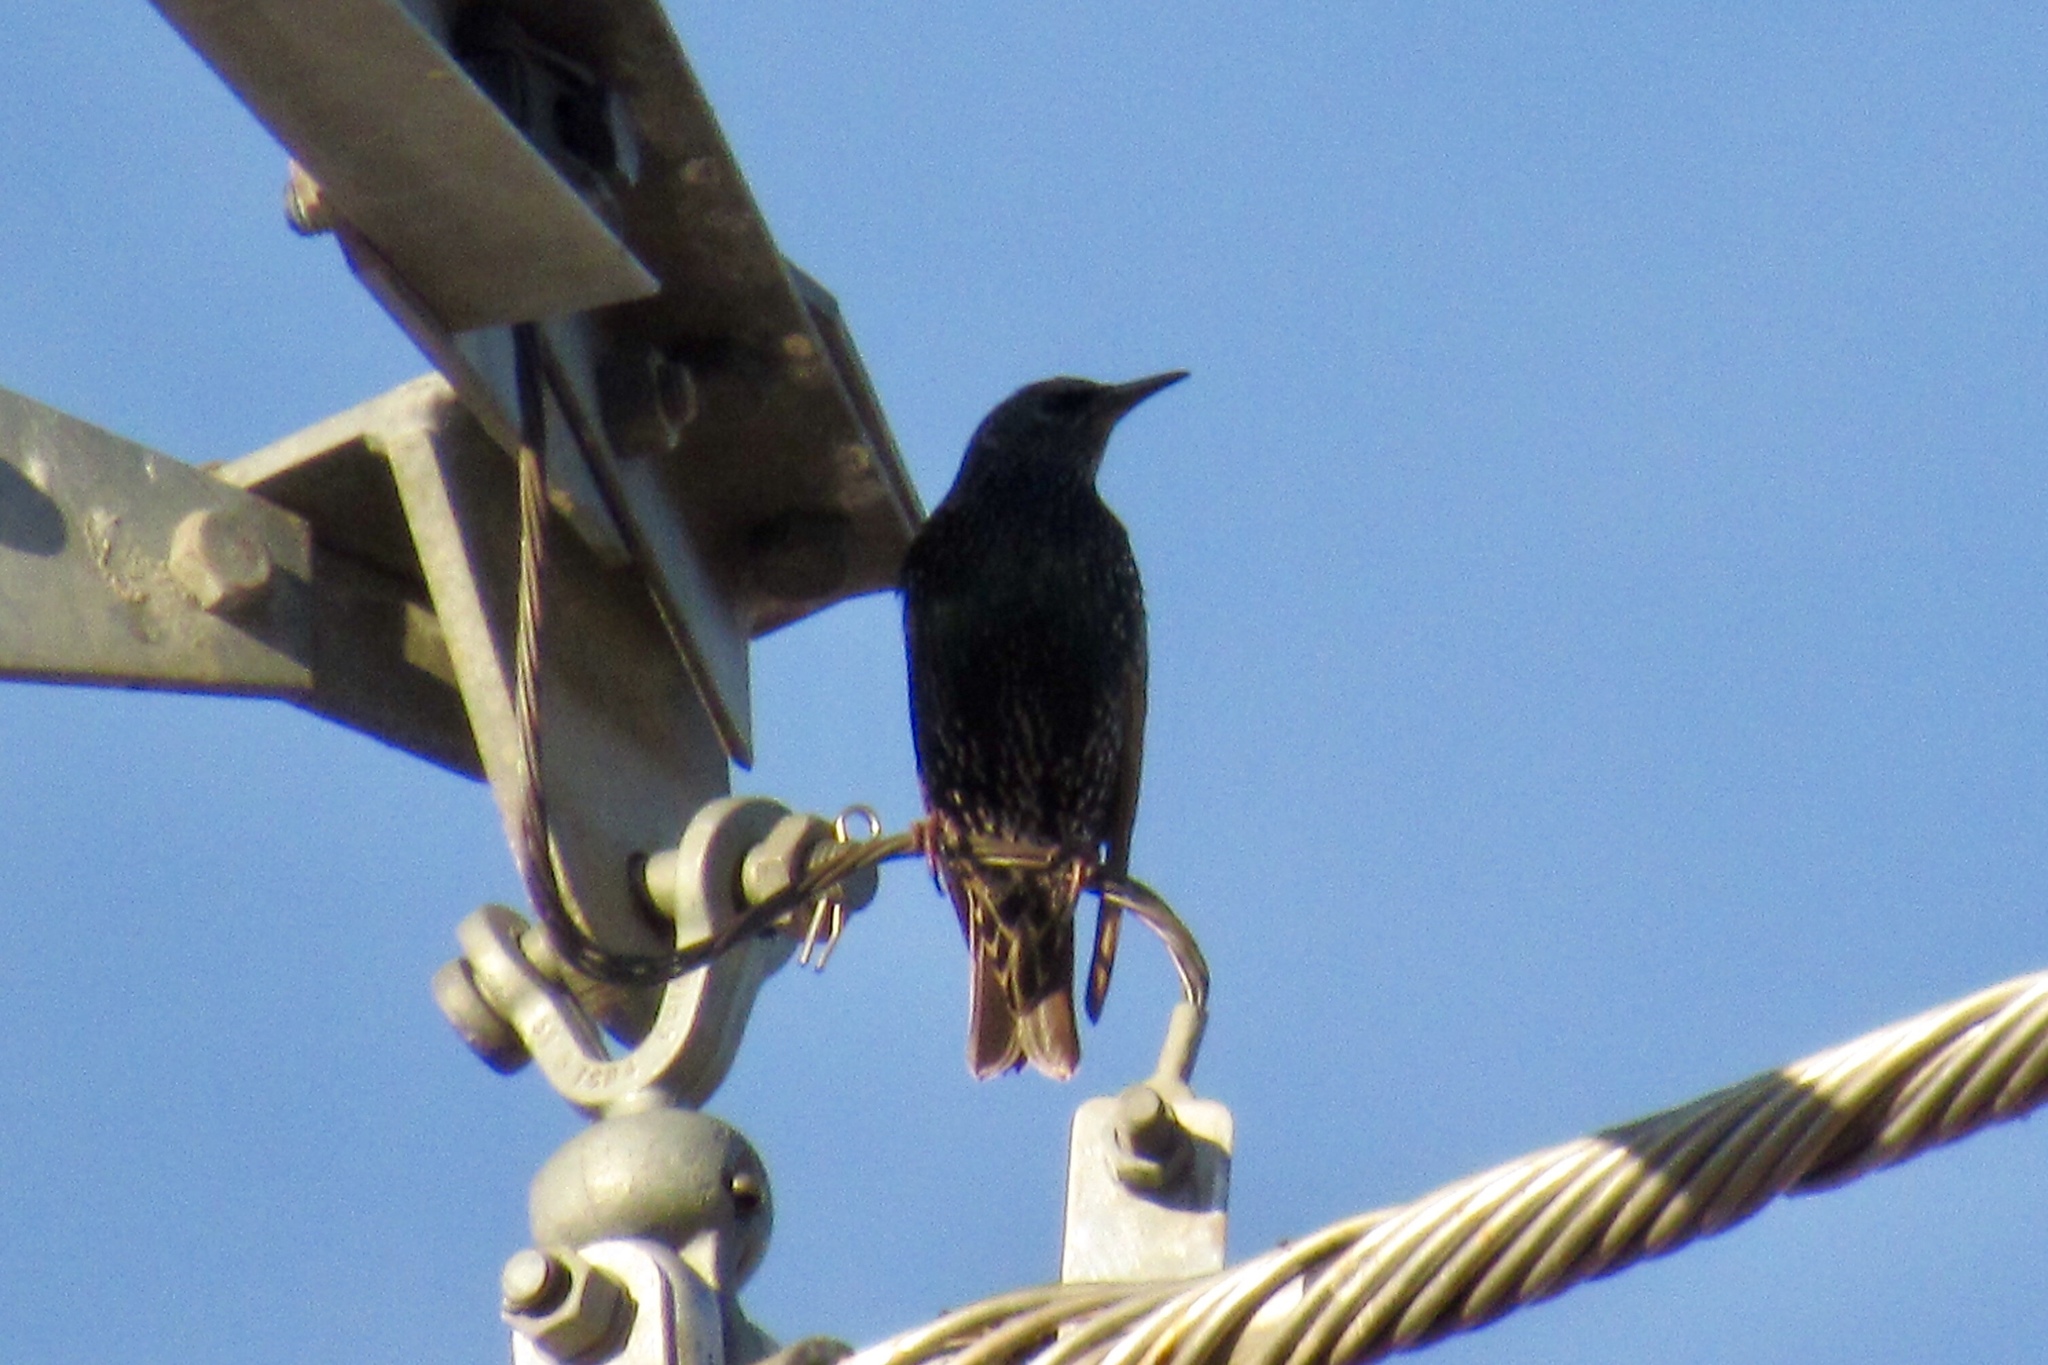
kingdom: Animalia
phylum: Chordata
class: Aves
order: Passeriformes
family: Sturnidae
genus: Sturnus
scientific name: Sturnus vulgaris
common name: Common starling
